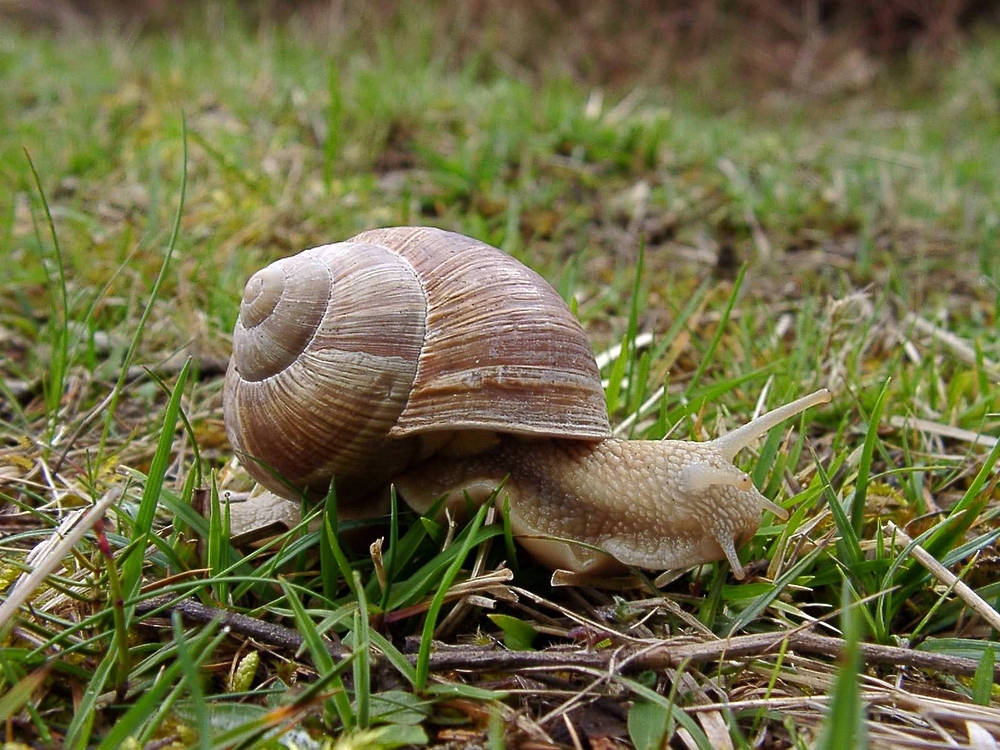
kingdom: Animalia
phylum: Mollusca
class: Gastropoda
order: Stylommatophora
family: Helicidae
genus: Helix
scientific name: Helix pomatia
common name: Roman snail
